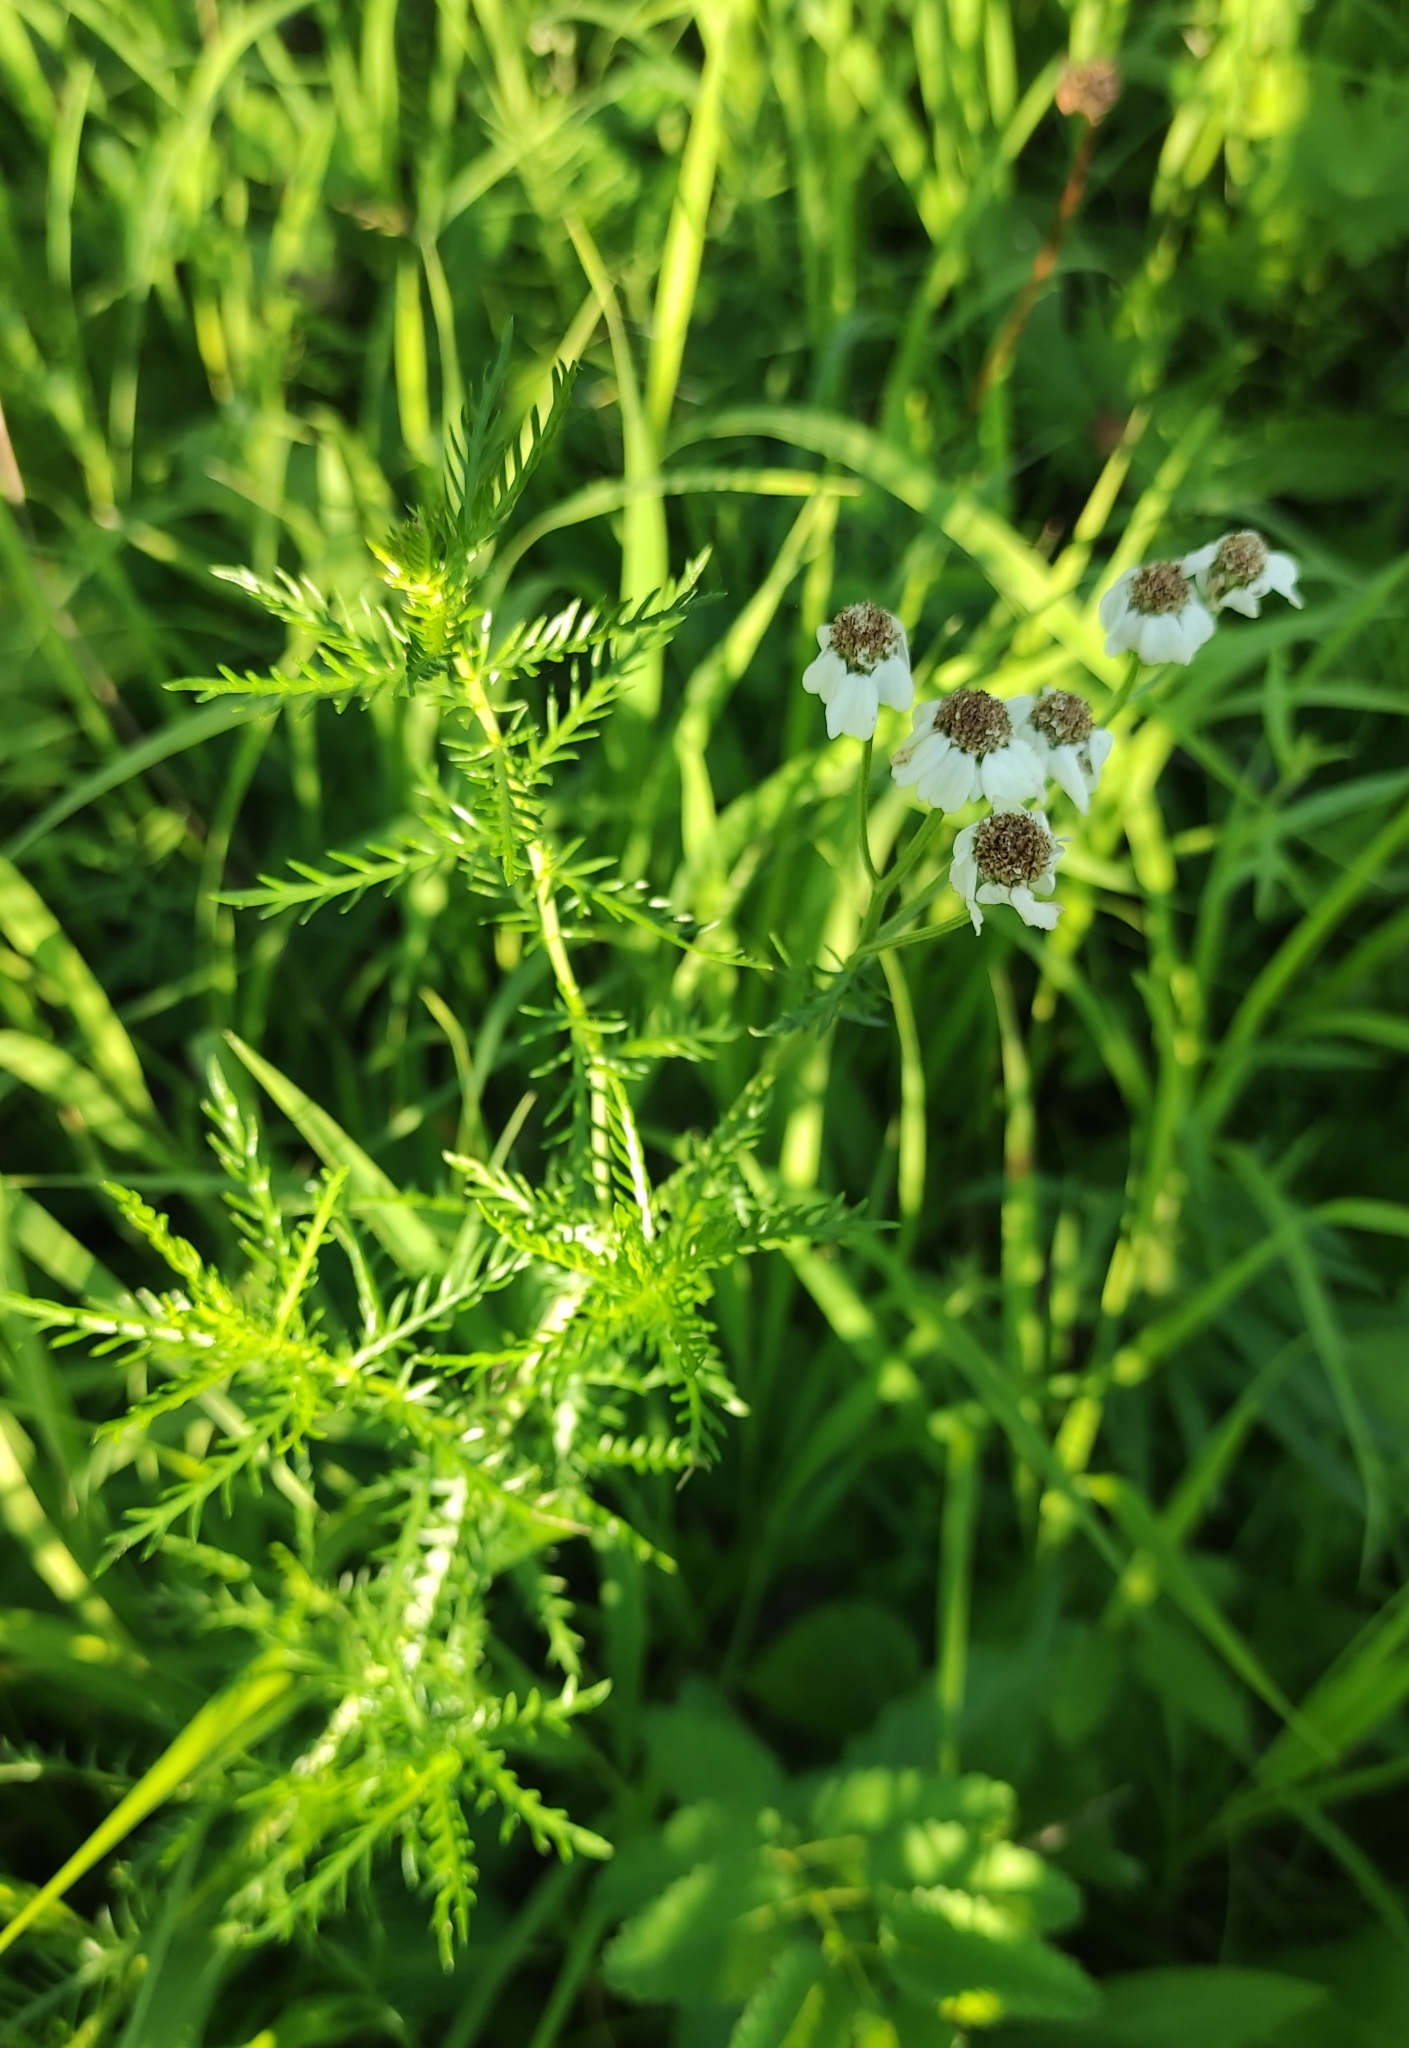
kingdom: Plantae
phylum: Tracheophyta
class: Magnoliopsida
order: Asterales
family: Asteraceae
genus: Achillea
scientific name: Achillea impatiens
